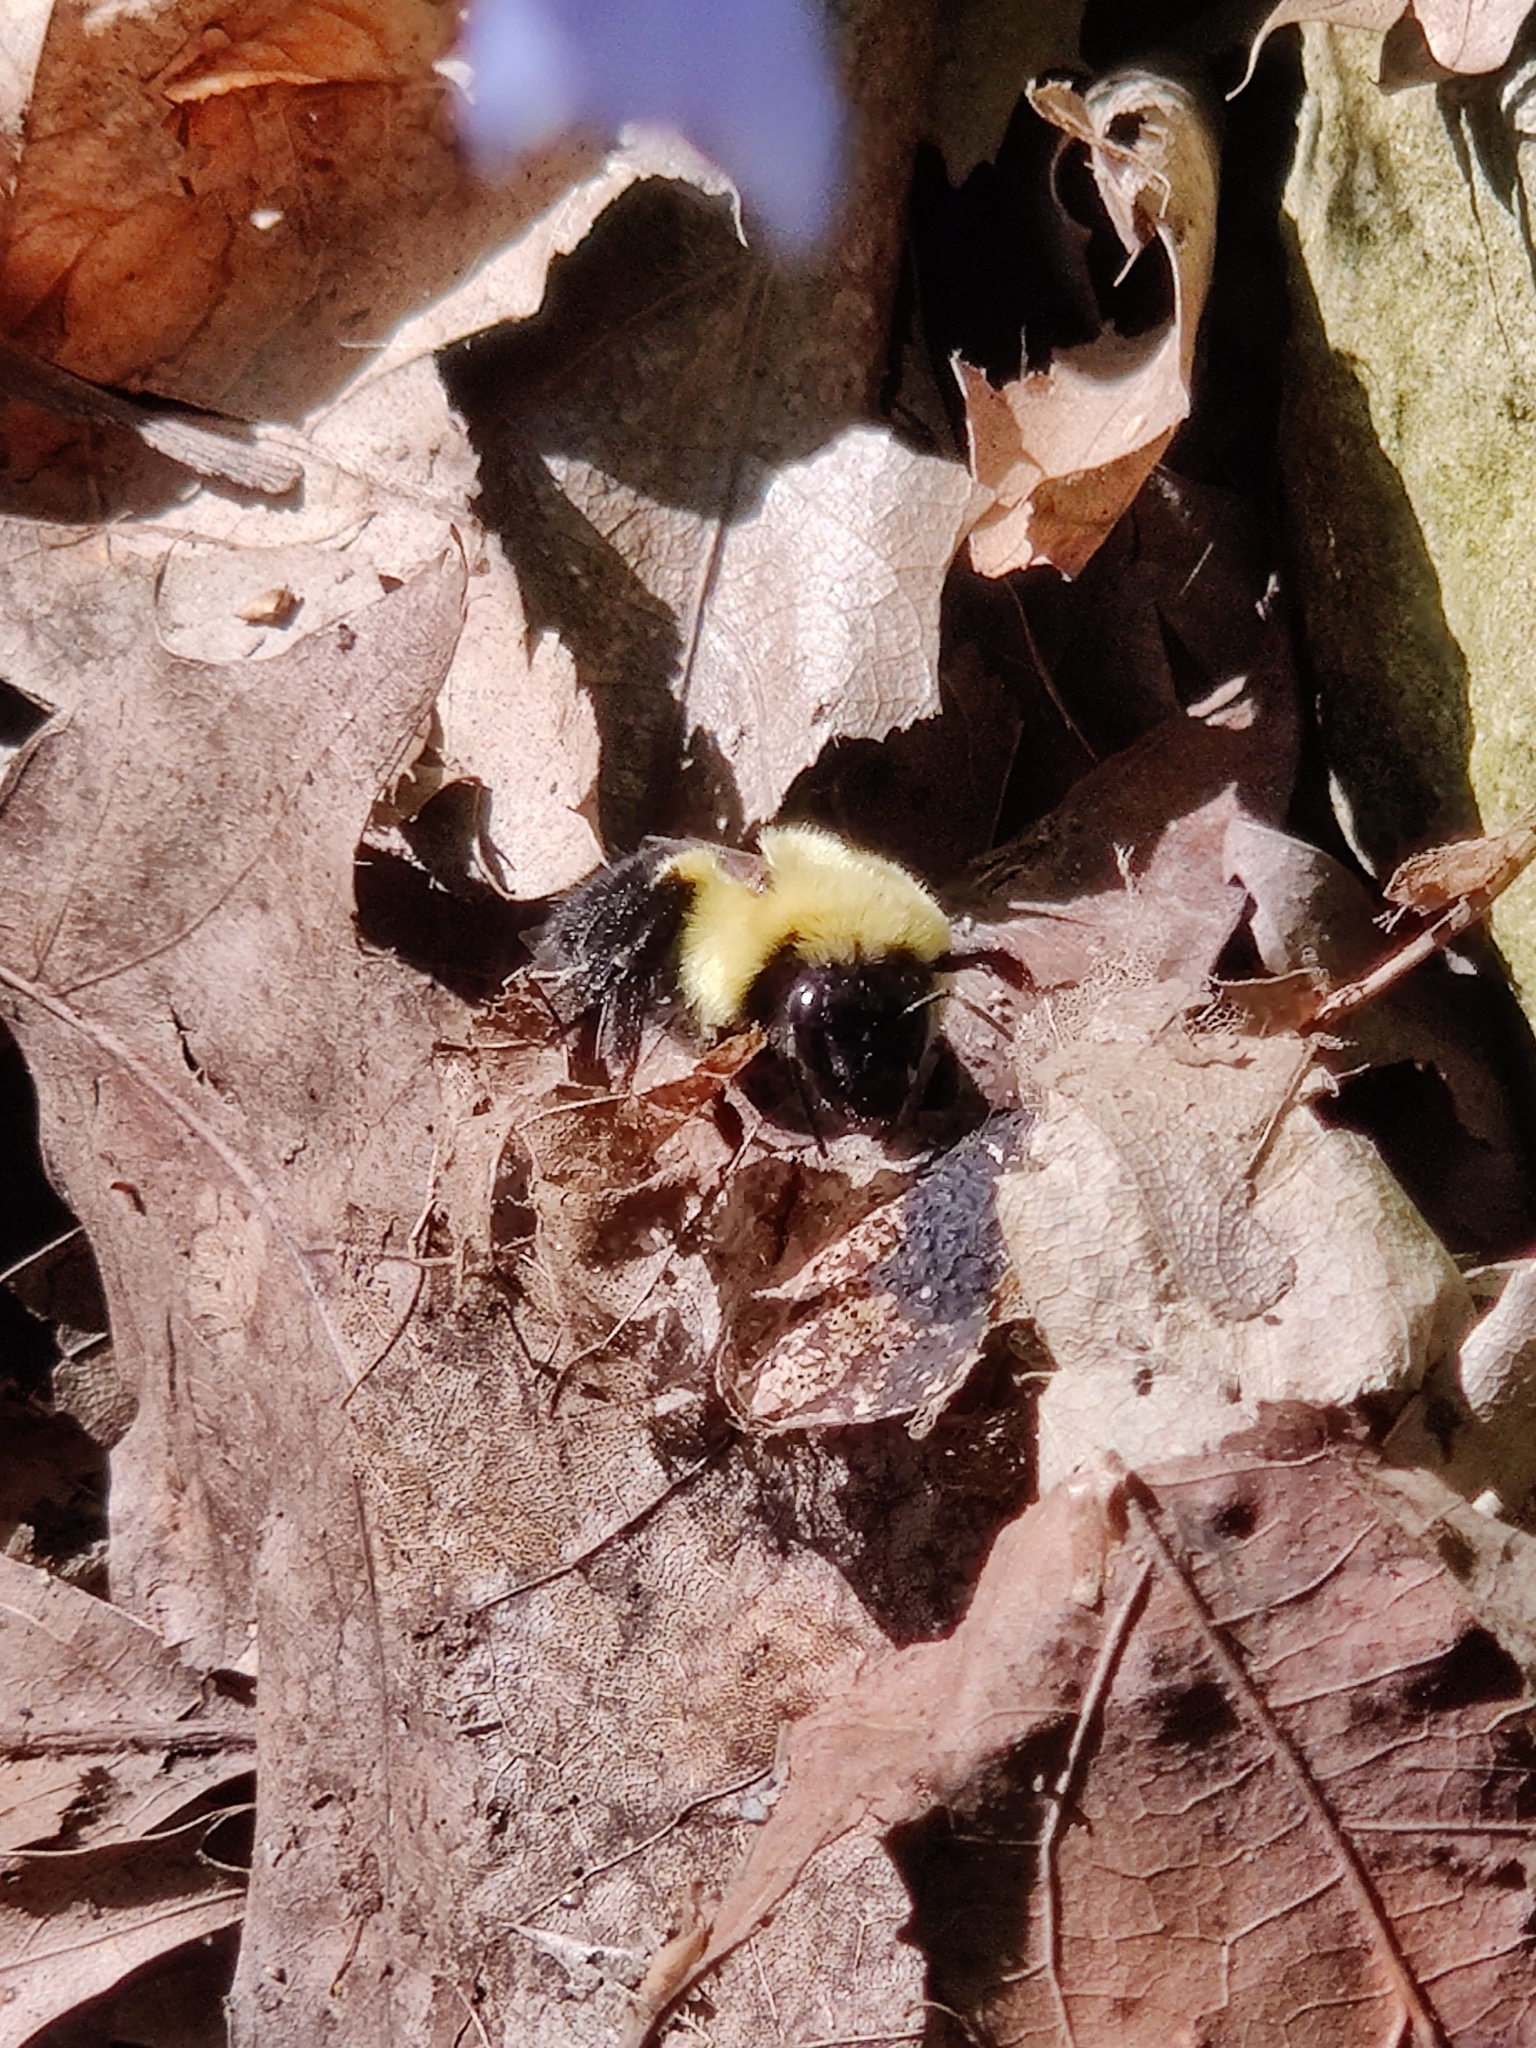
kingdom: Animalia
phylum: Arthropoda
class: Insecta
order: Hymenoptera
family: Apidae
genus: Bombus
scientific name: Bombus impatiens
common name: Common eastern bumble bee
